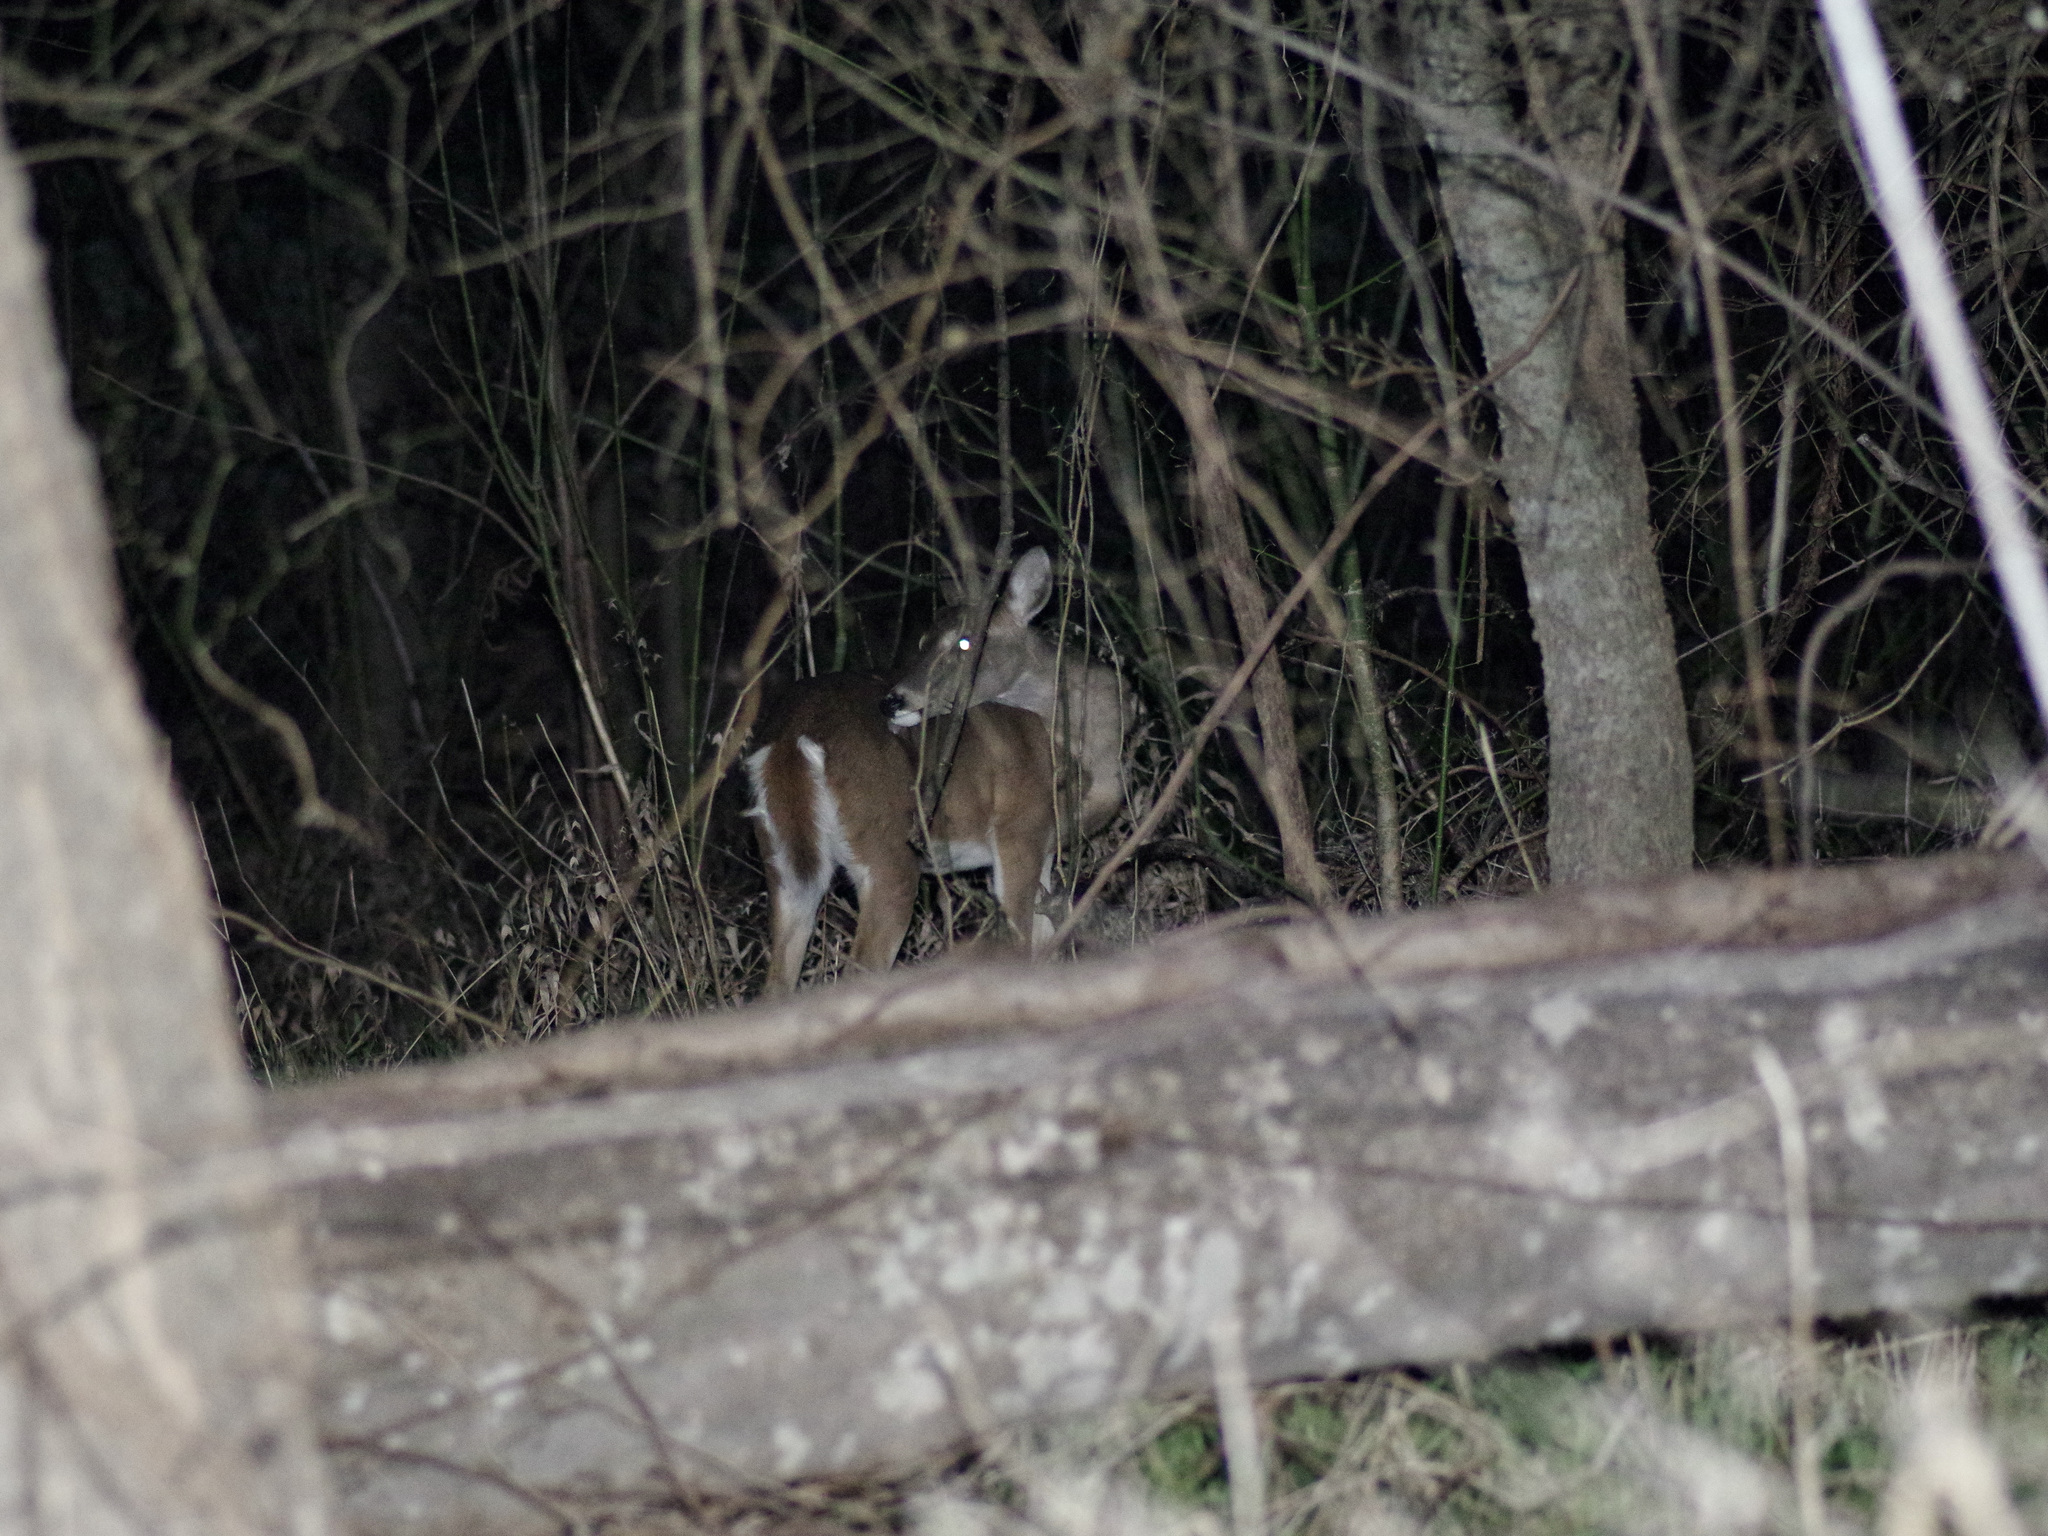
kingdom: Animalia
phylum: Chordata
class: Mammalia
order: Artiodactyla
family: Cervidae
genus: Odocoileus
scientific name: Odocoileus virginianus
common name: White-tailed deer
